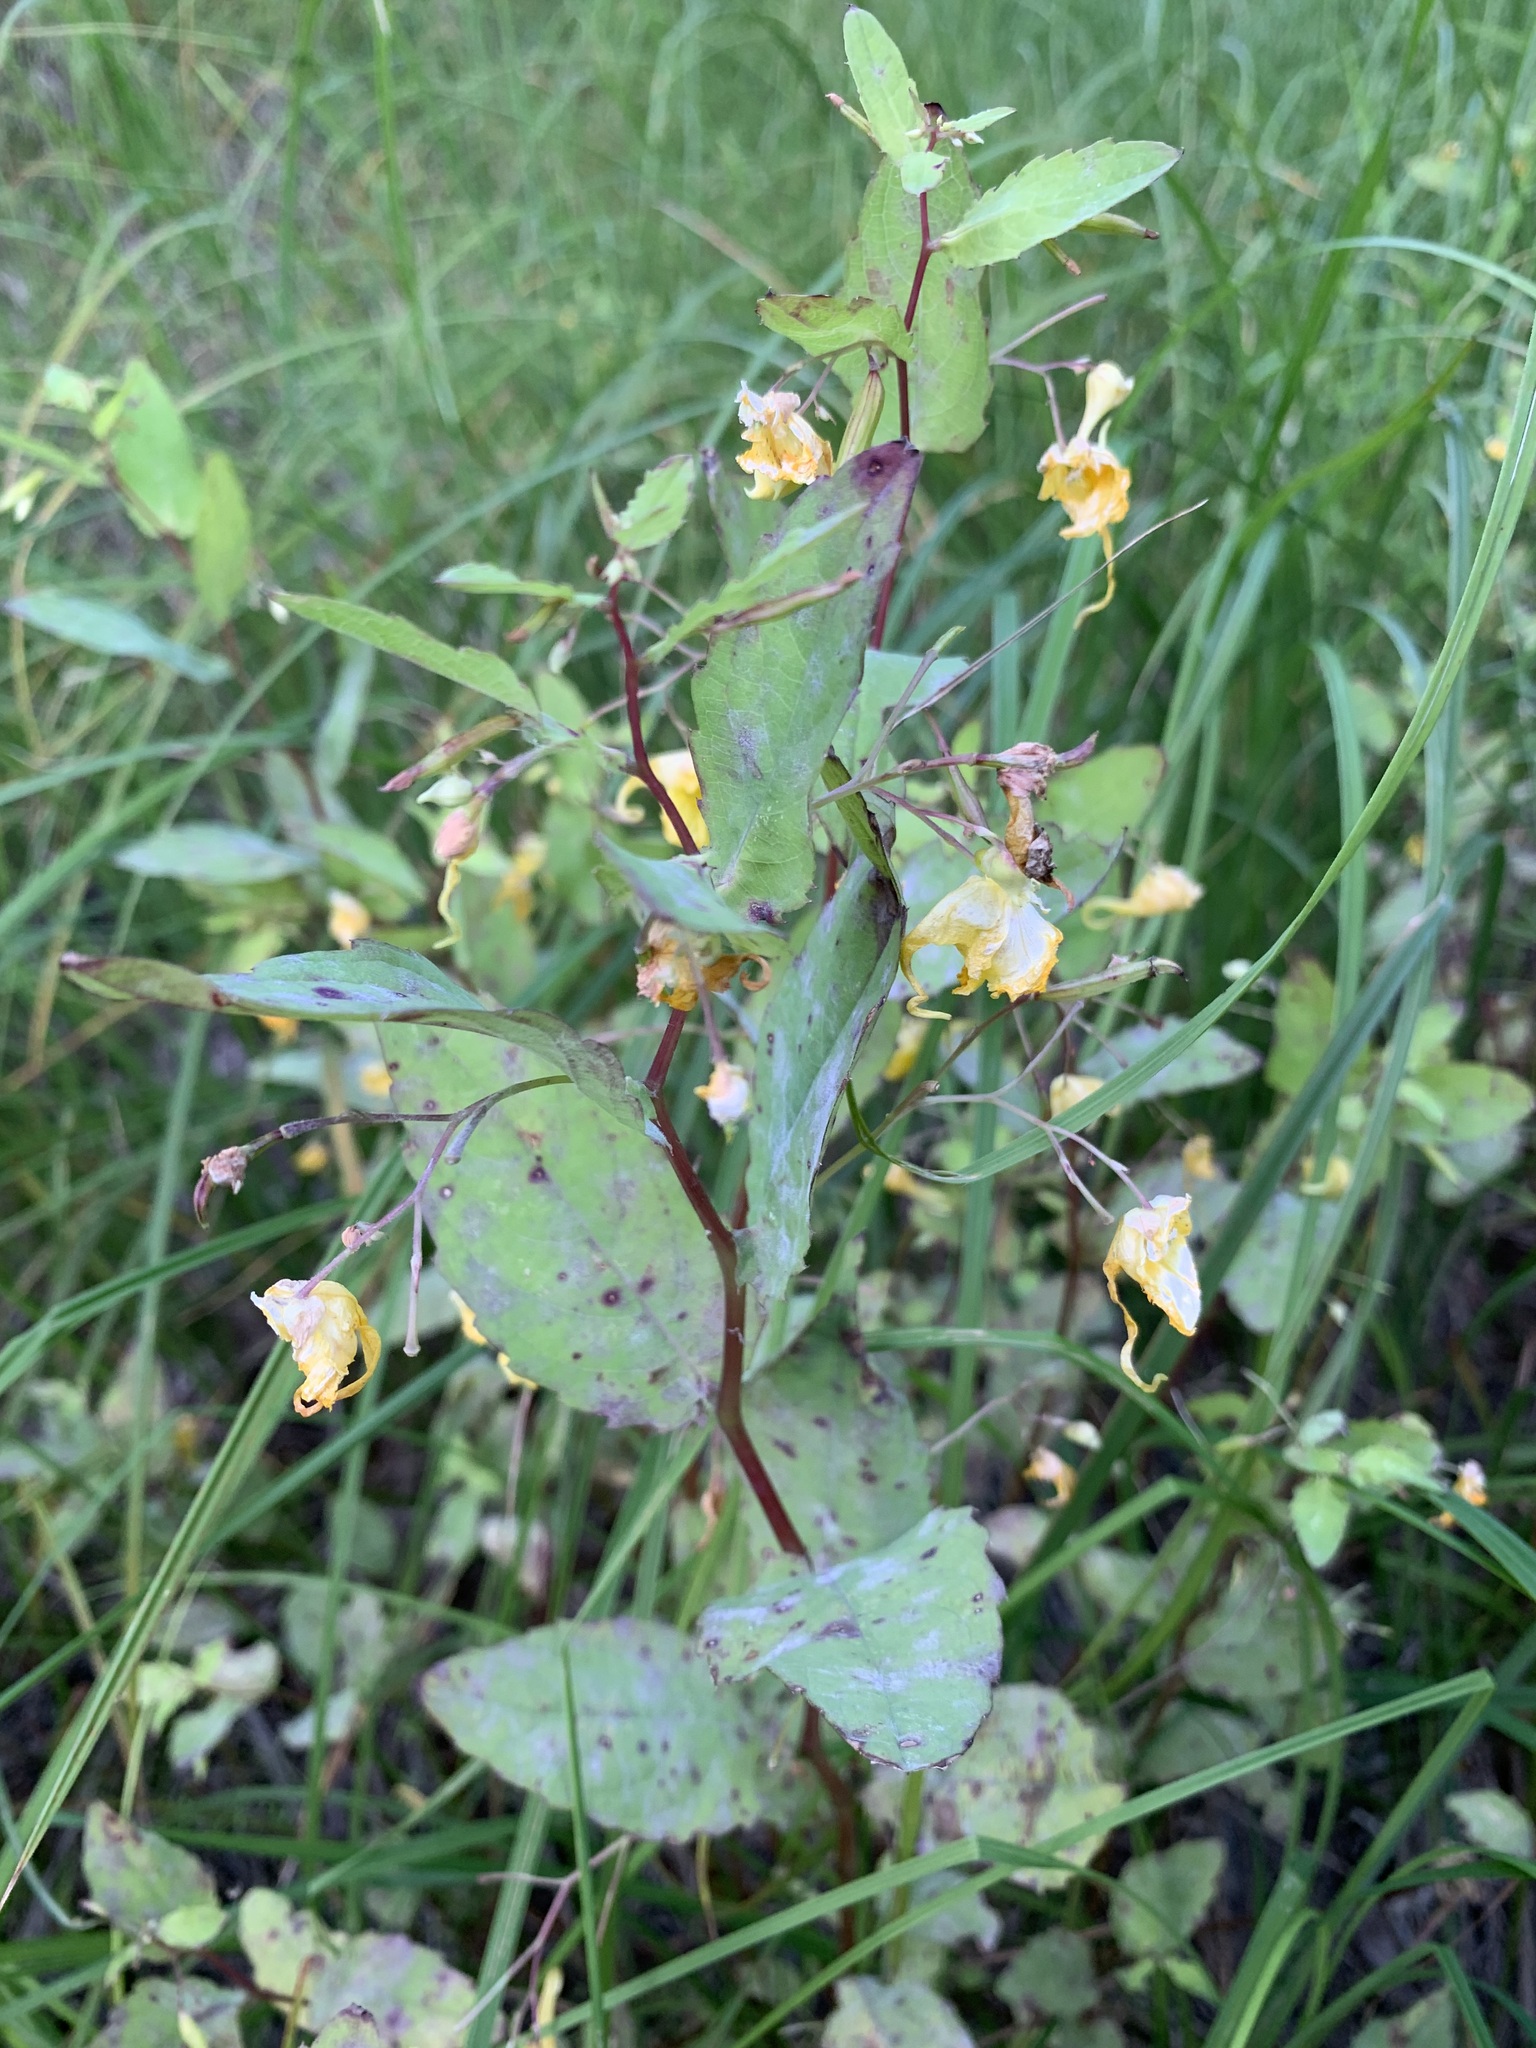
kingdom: Plantae
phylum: Tracheophyta
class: Magnoliopsida
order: Ericales
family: Balsaminaceae
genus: Impatiens
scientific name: Impatiens noli-tangere
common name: Touch-me-not balsam
